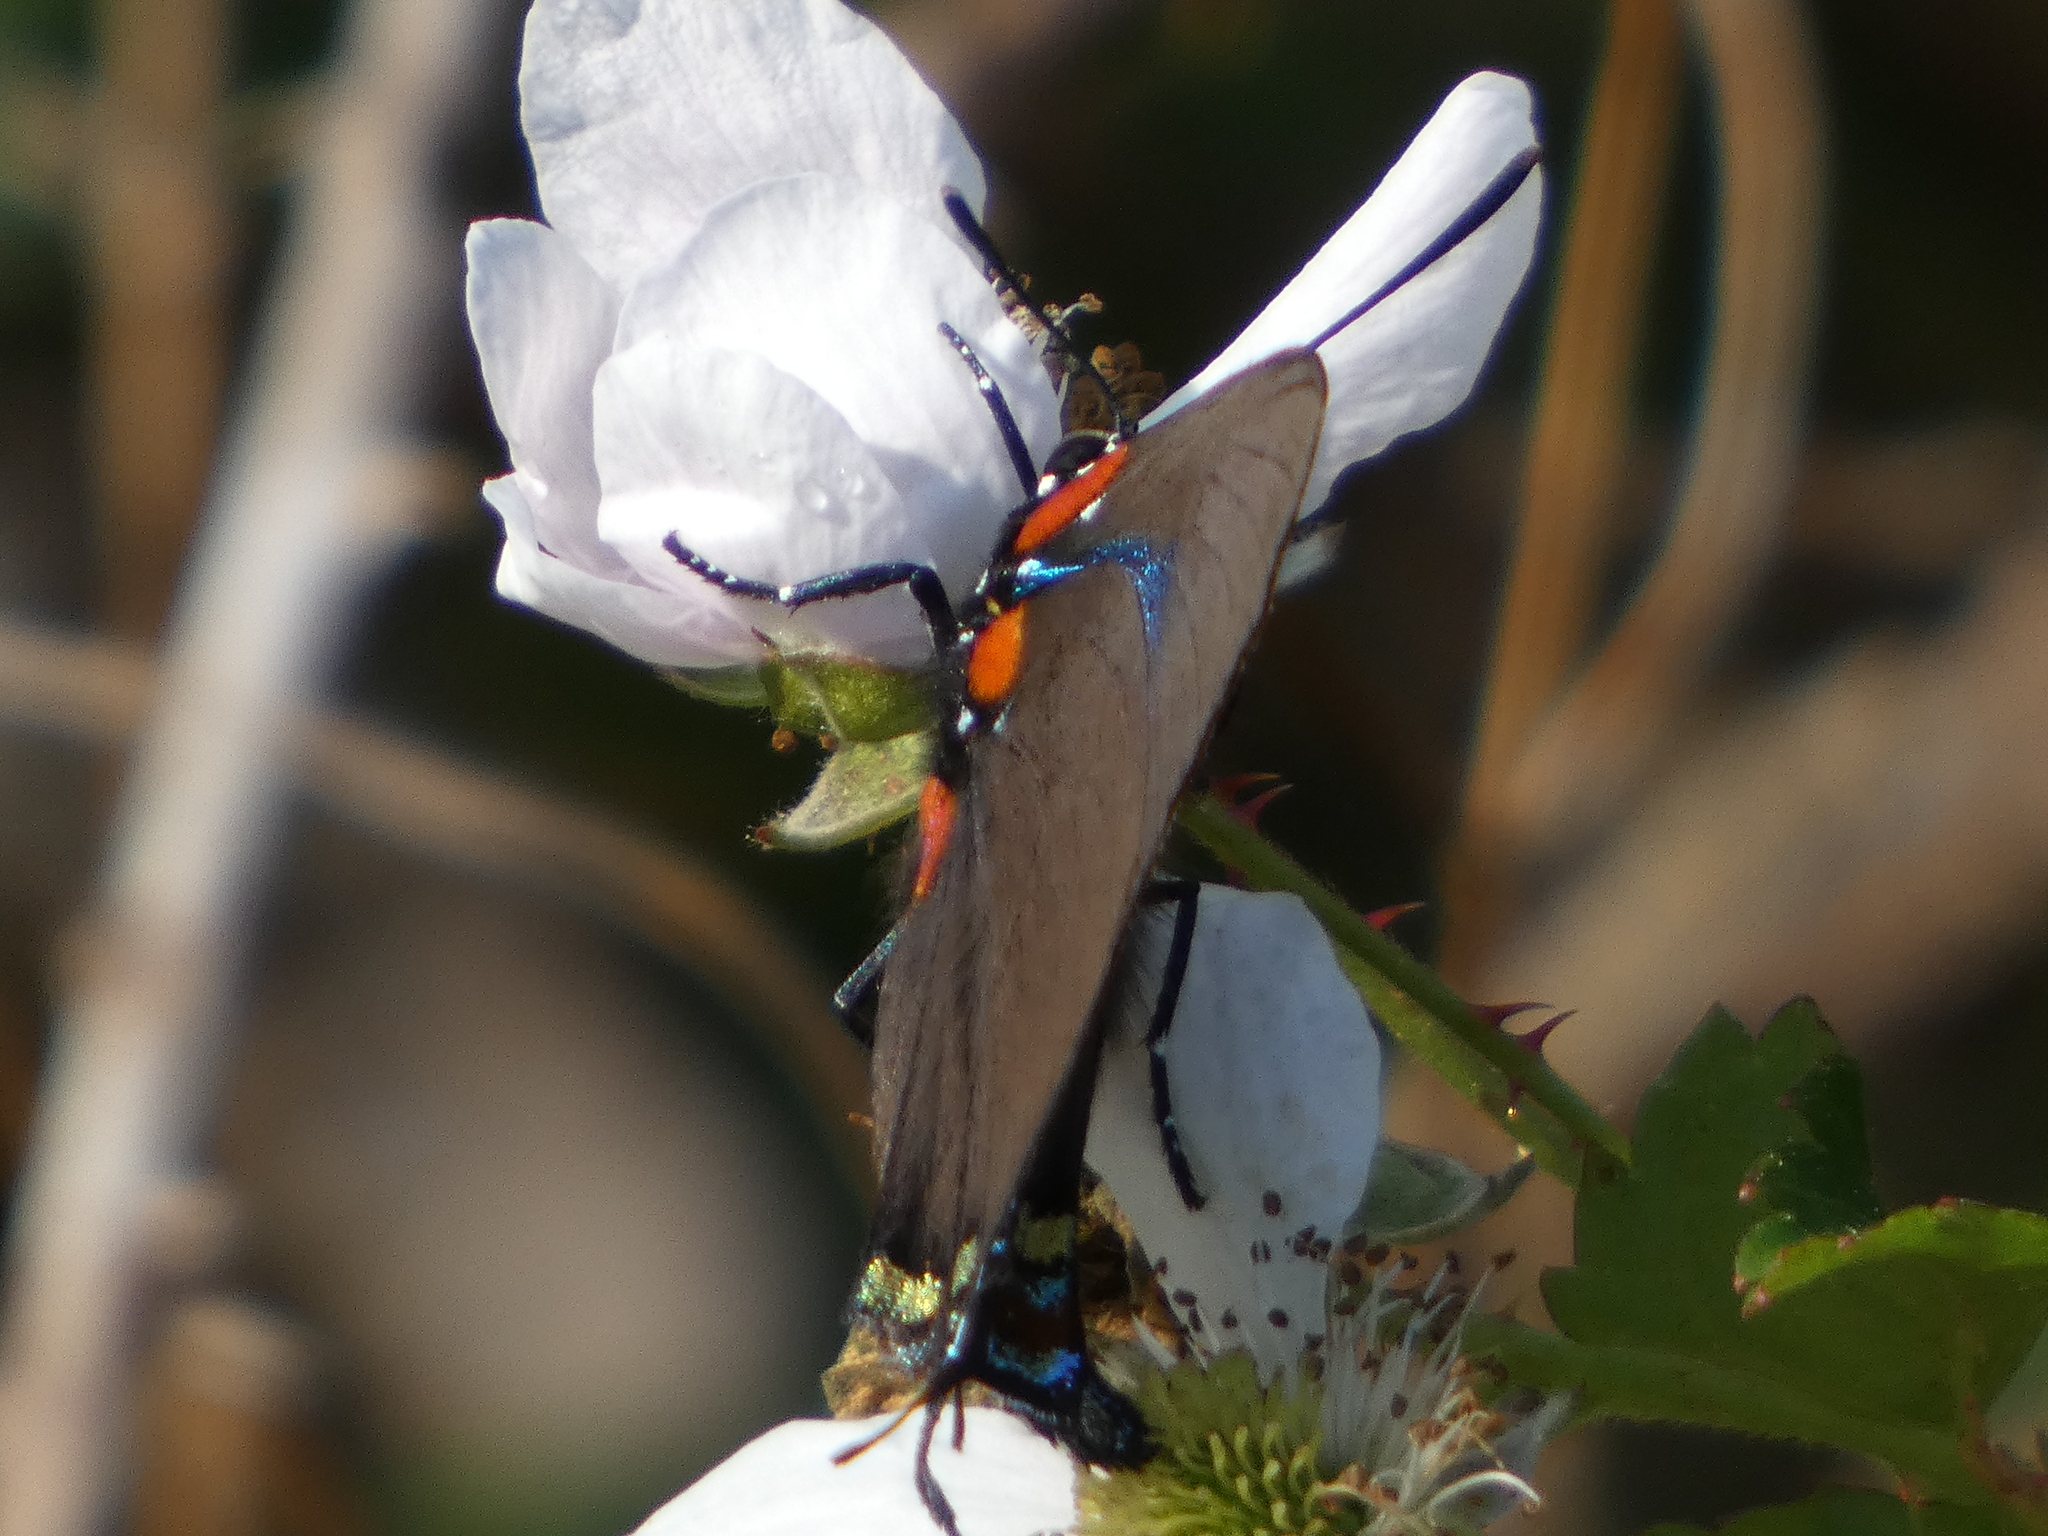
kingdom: Animalia
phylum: Arthropoda
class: Insecta
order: Lepidoptera
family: Lycaenidae
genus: Atlides
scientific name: Atlides halesus
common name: Great purple hairstreak
